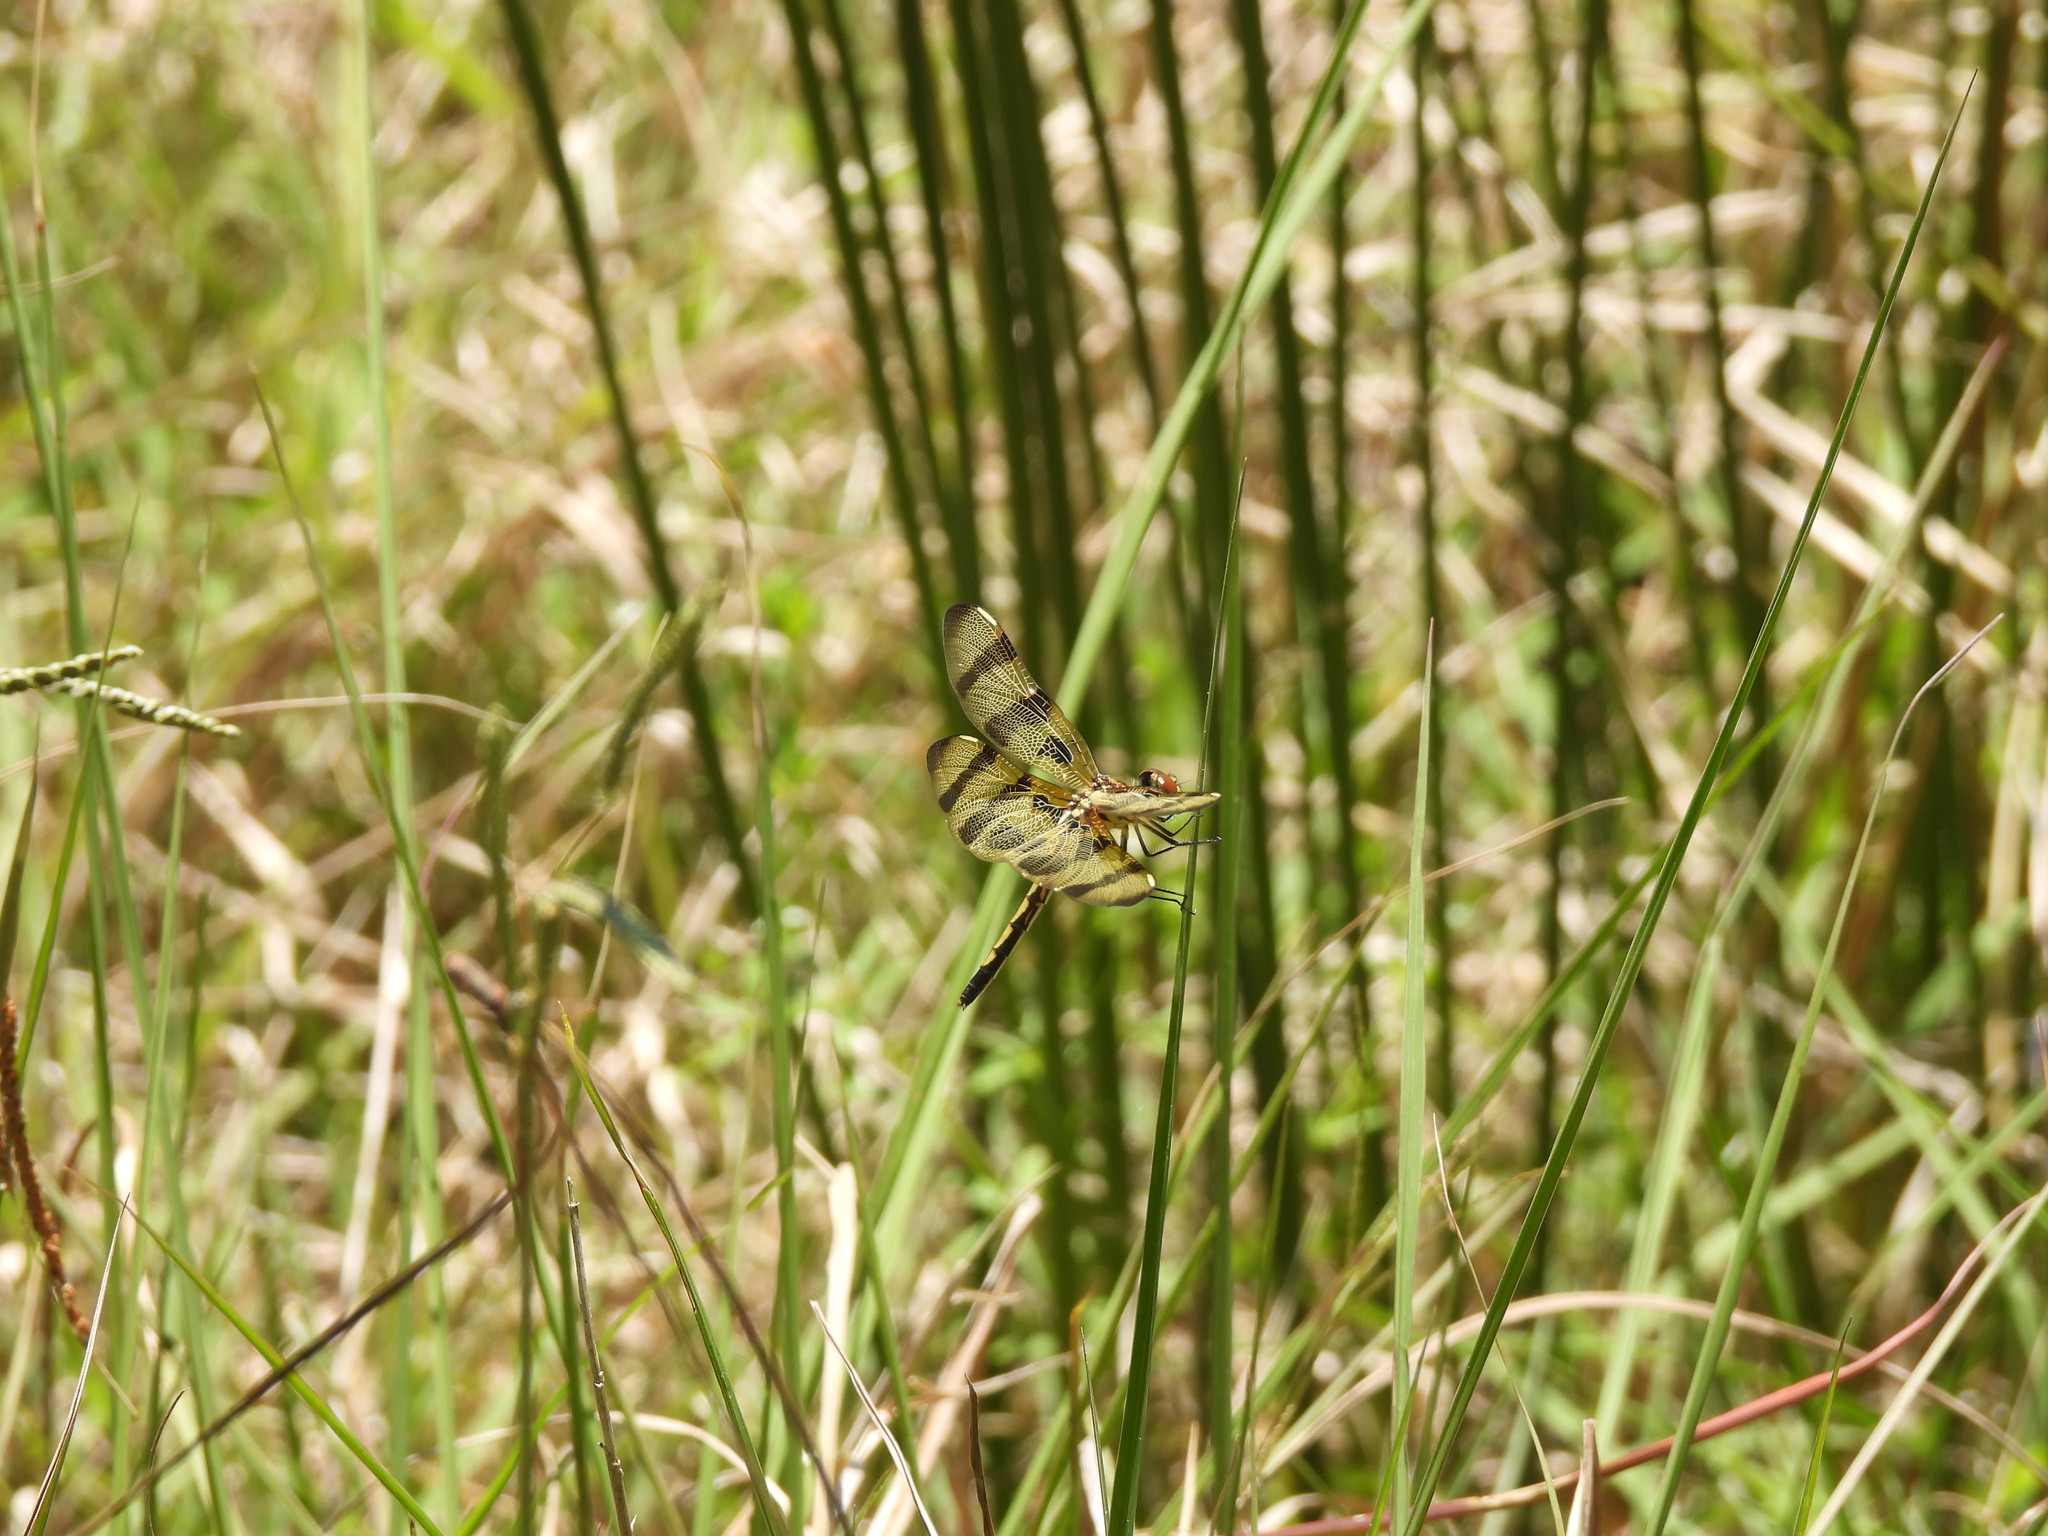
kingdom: Animalia
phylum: Arthropoda
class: Insecta
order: Odonata
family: Libellulidae
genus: Celithemis
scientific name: Celithemis eponina
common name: Halloween pennant
